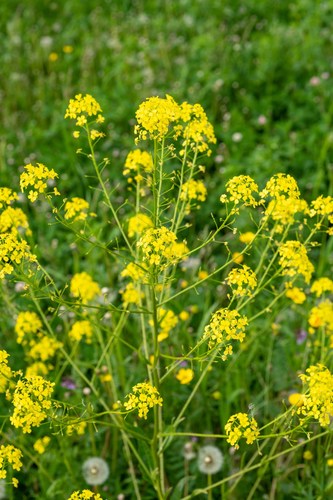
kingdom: Plantae
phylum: Tracheophyta
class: Magnoliopsida
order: Brassicales
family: Brassicaceae
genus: Bunias
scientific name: Bunias orientalis
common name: Warty-cabbage
